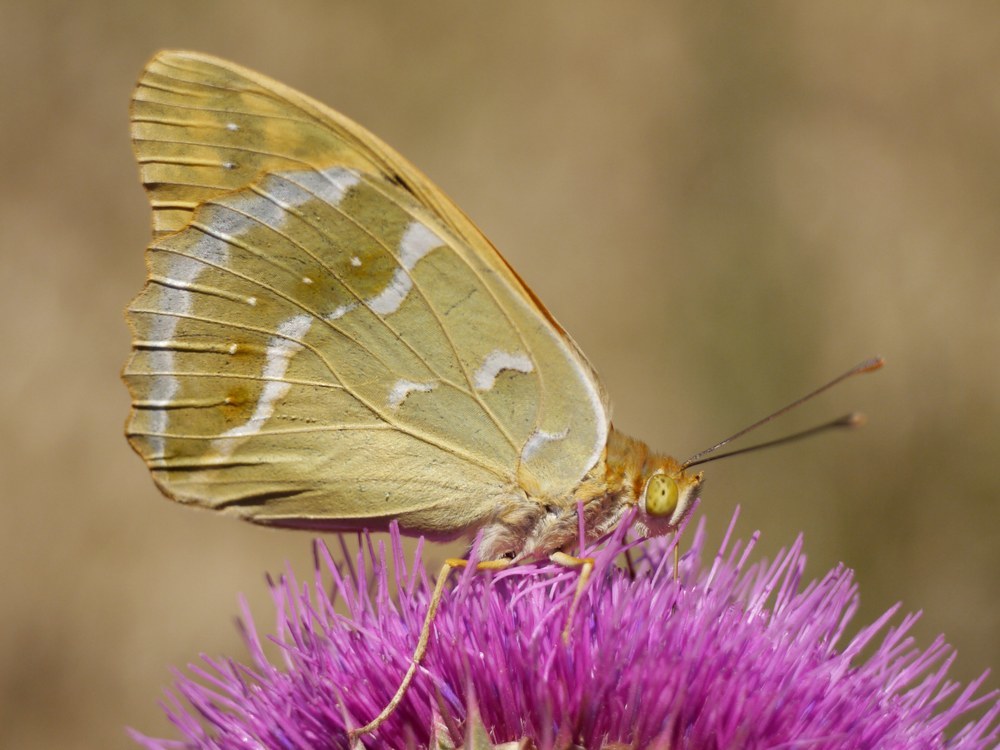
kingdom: Animalia
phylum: Arthropoda
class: Insecta
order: Lepidoptera
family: Nymphalidae
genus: Damora
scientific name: Damora pandora
